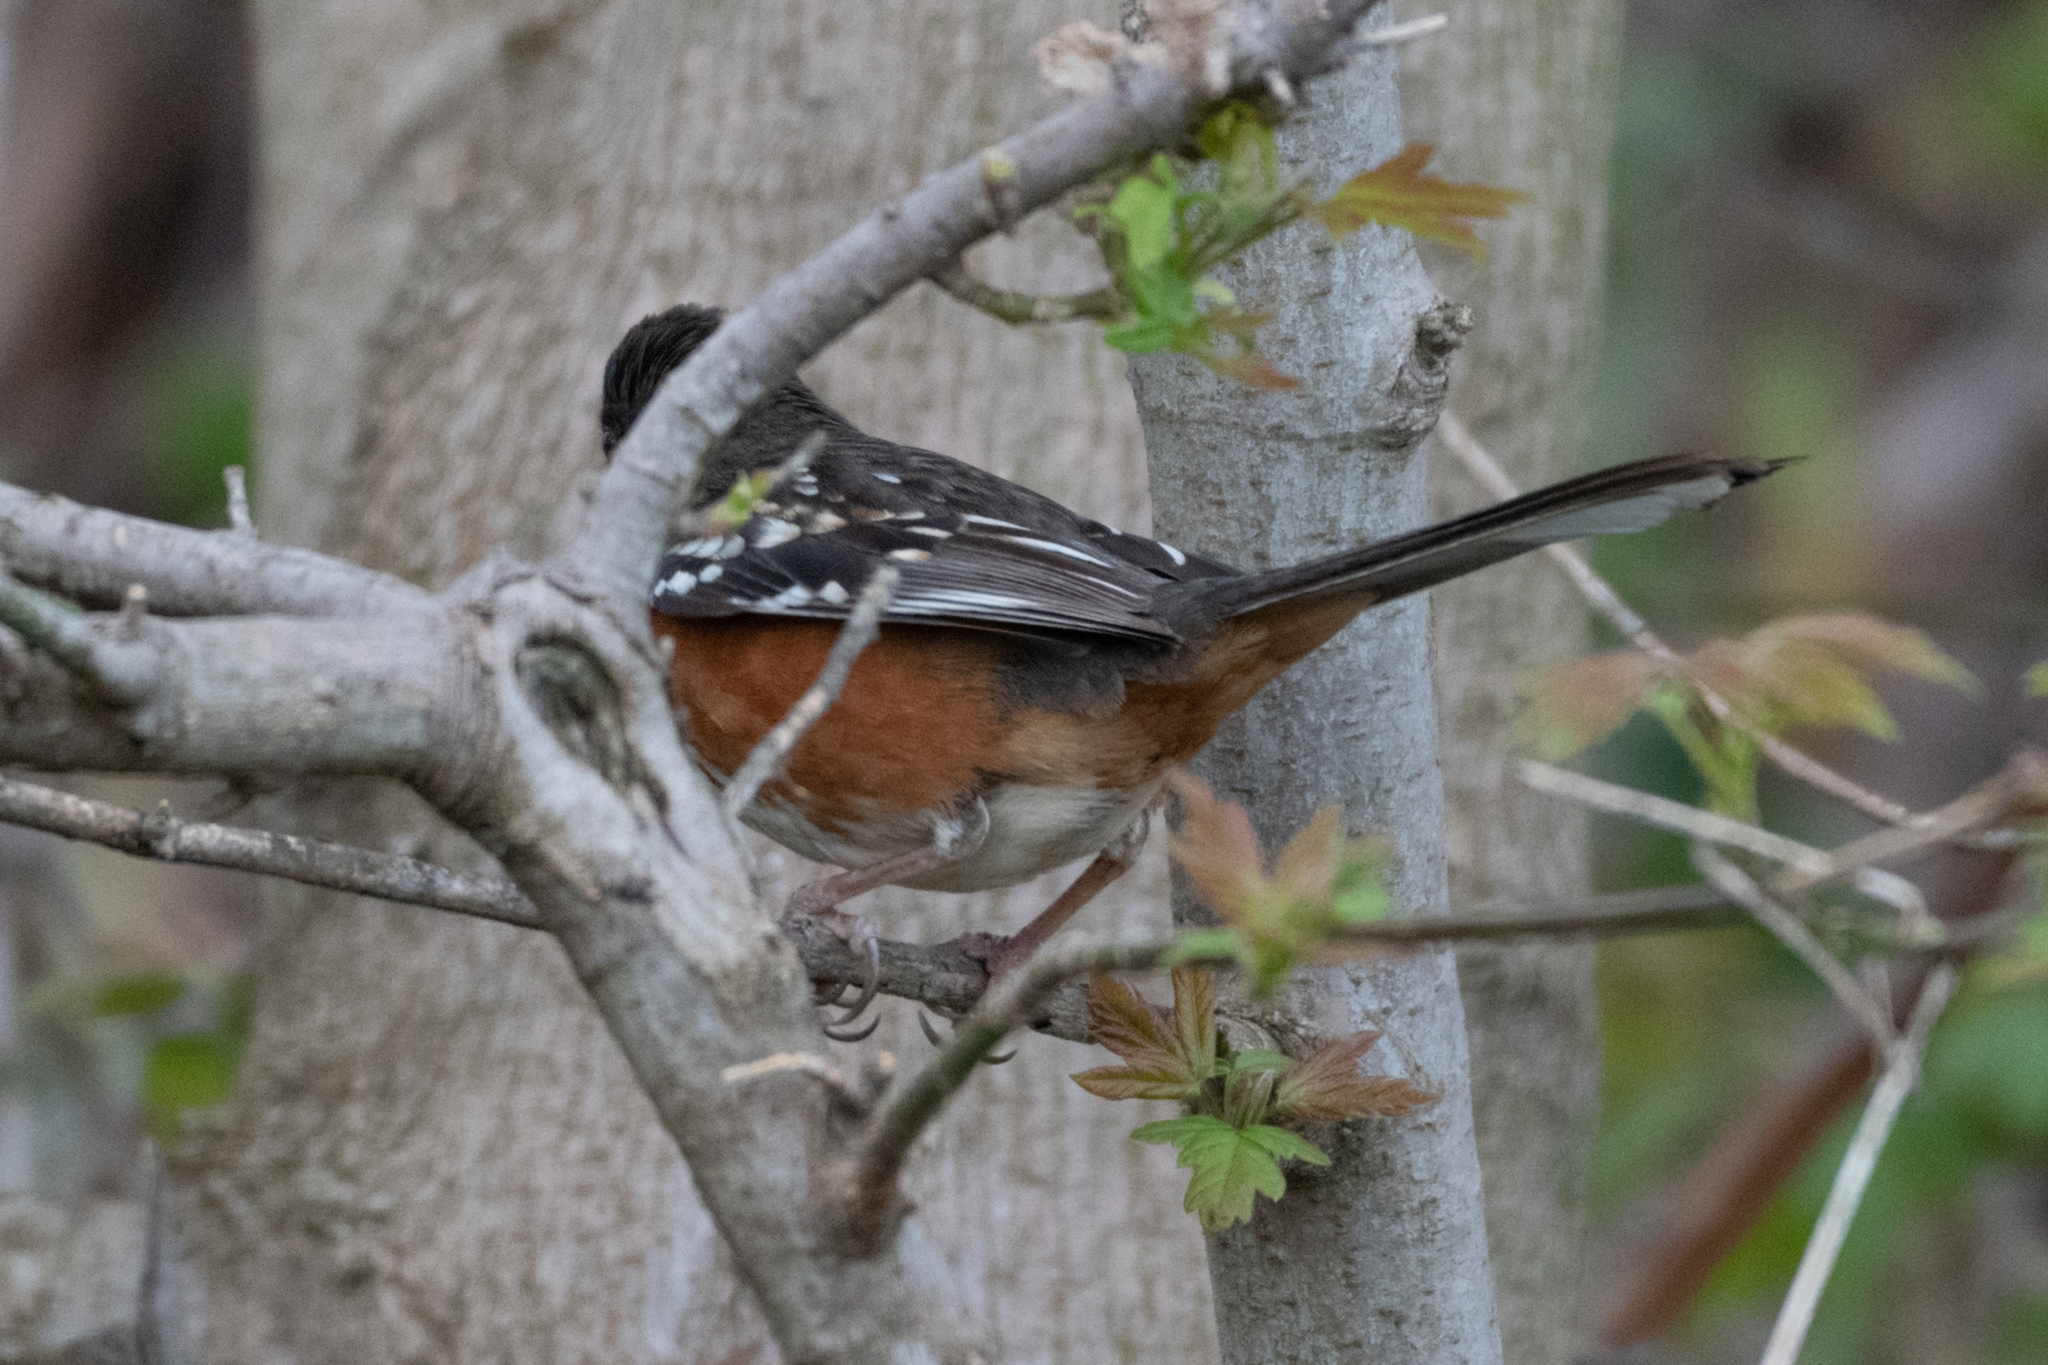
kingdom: Animalia
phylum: Chordata
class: Aves
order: Passeriformes
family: Passerellidae
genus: Pipilo
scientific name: Pipilo maculatus
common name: Spotted towhee
